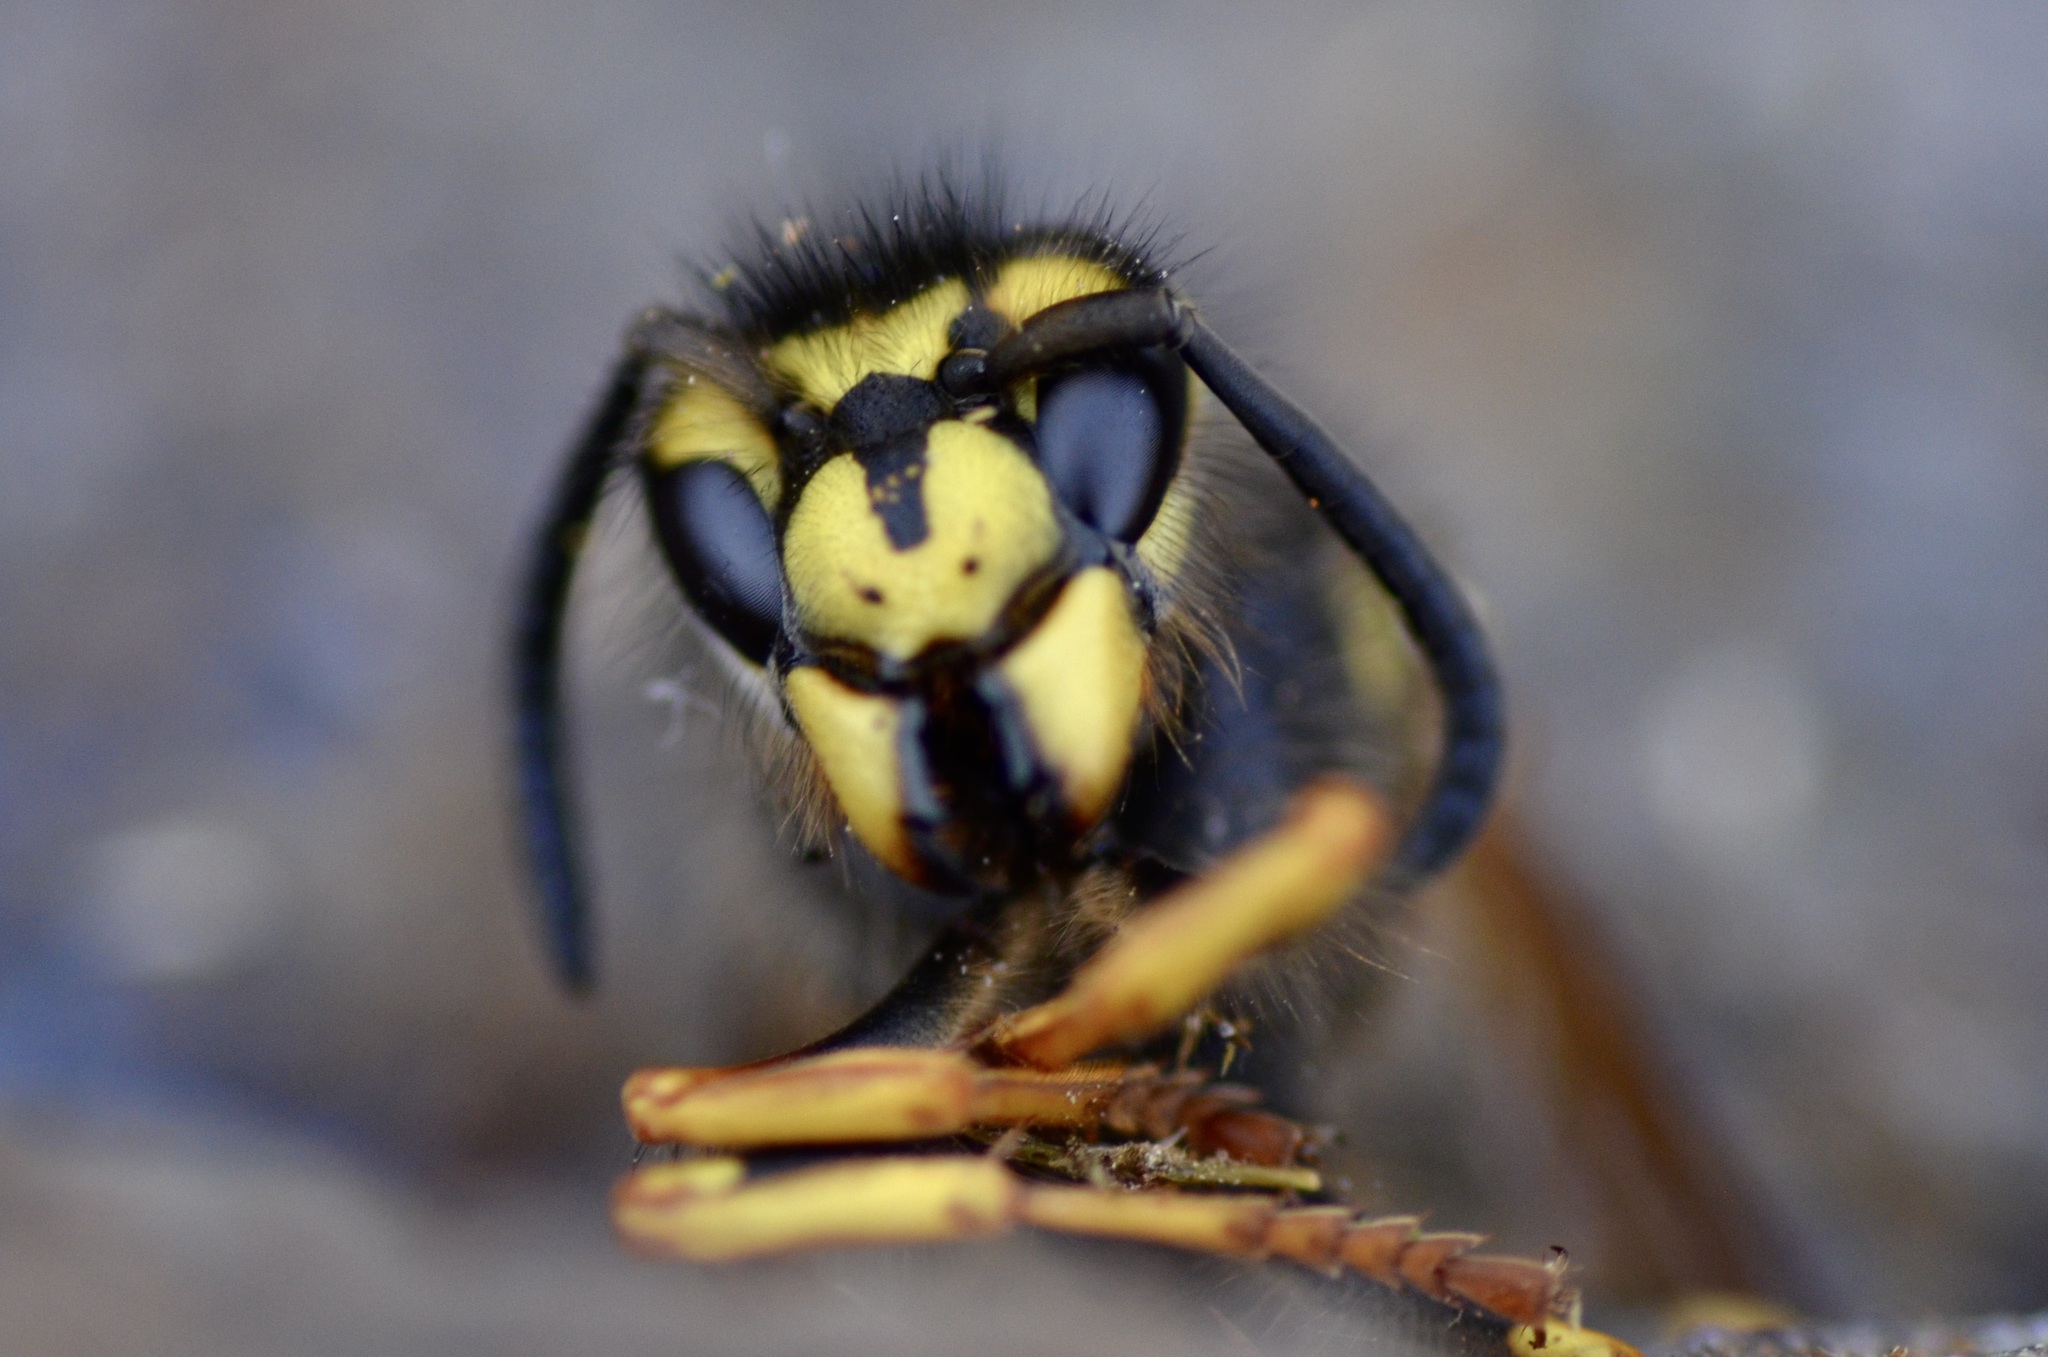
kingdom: Animalia
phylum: Arthropoda
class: Insecta
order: Hymenoptera
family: Vespidae
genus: Vespula
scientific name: Vespula germanica
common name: German wasp
